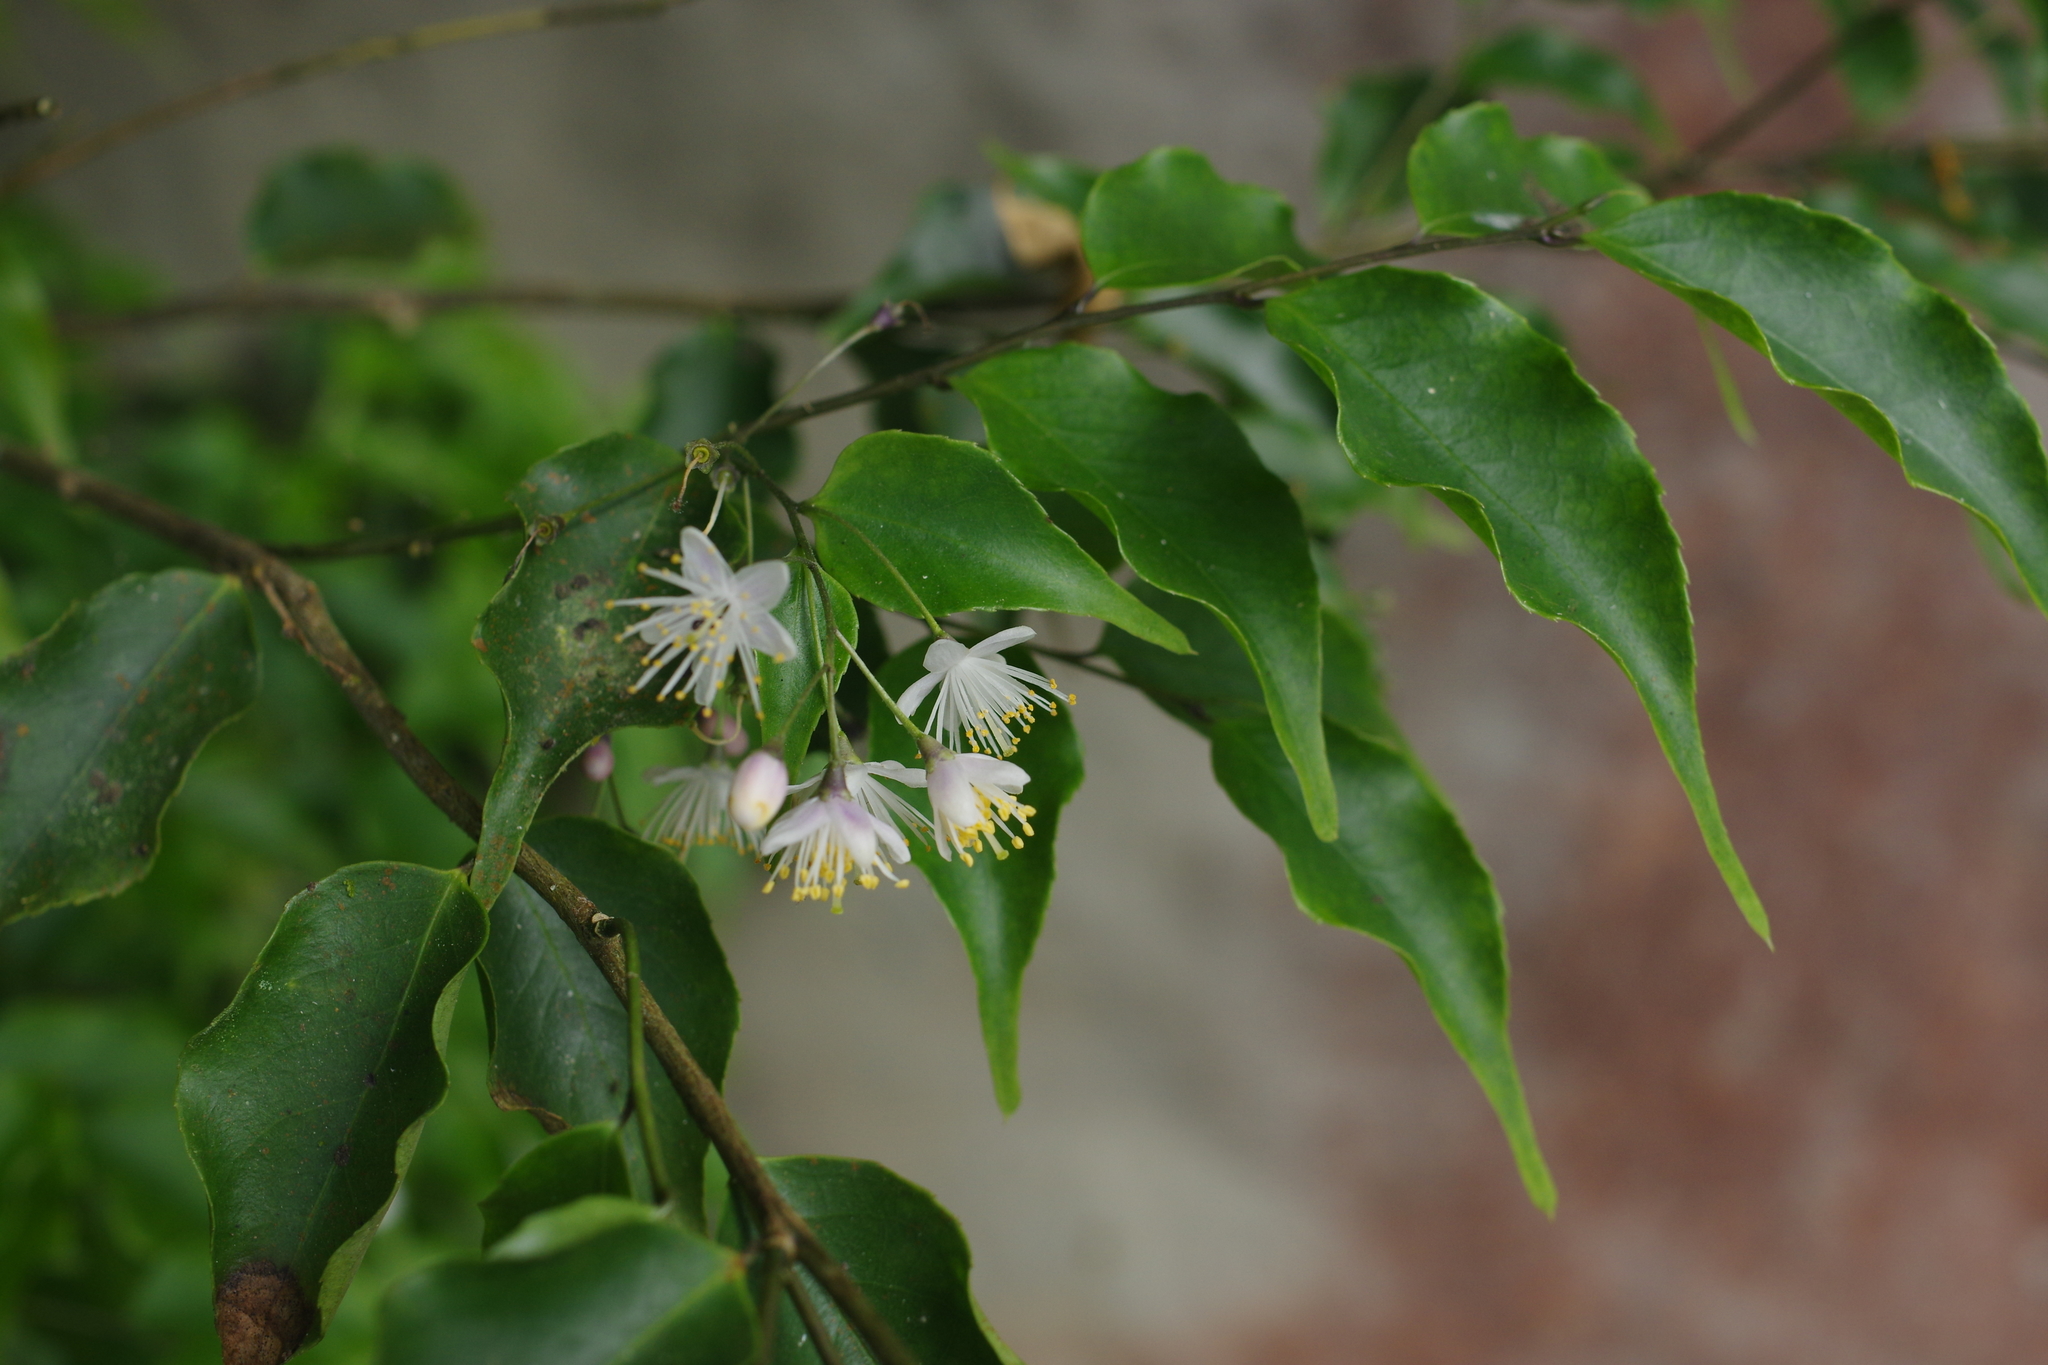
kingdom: Plantae
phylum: Tracheophyta
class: Magnoliopsida
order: Ericales
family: Symplocaceae
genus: Symplocos
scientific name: Symplocos sumuntia
